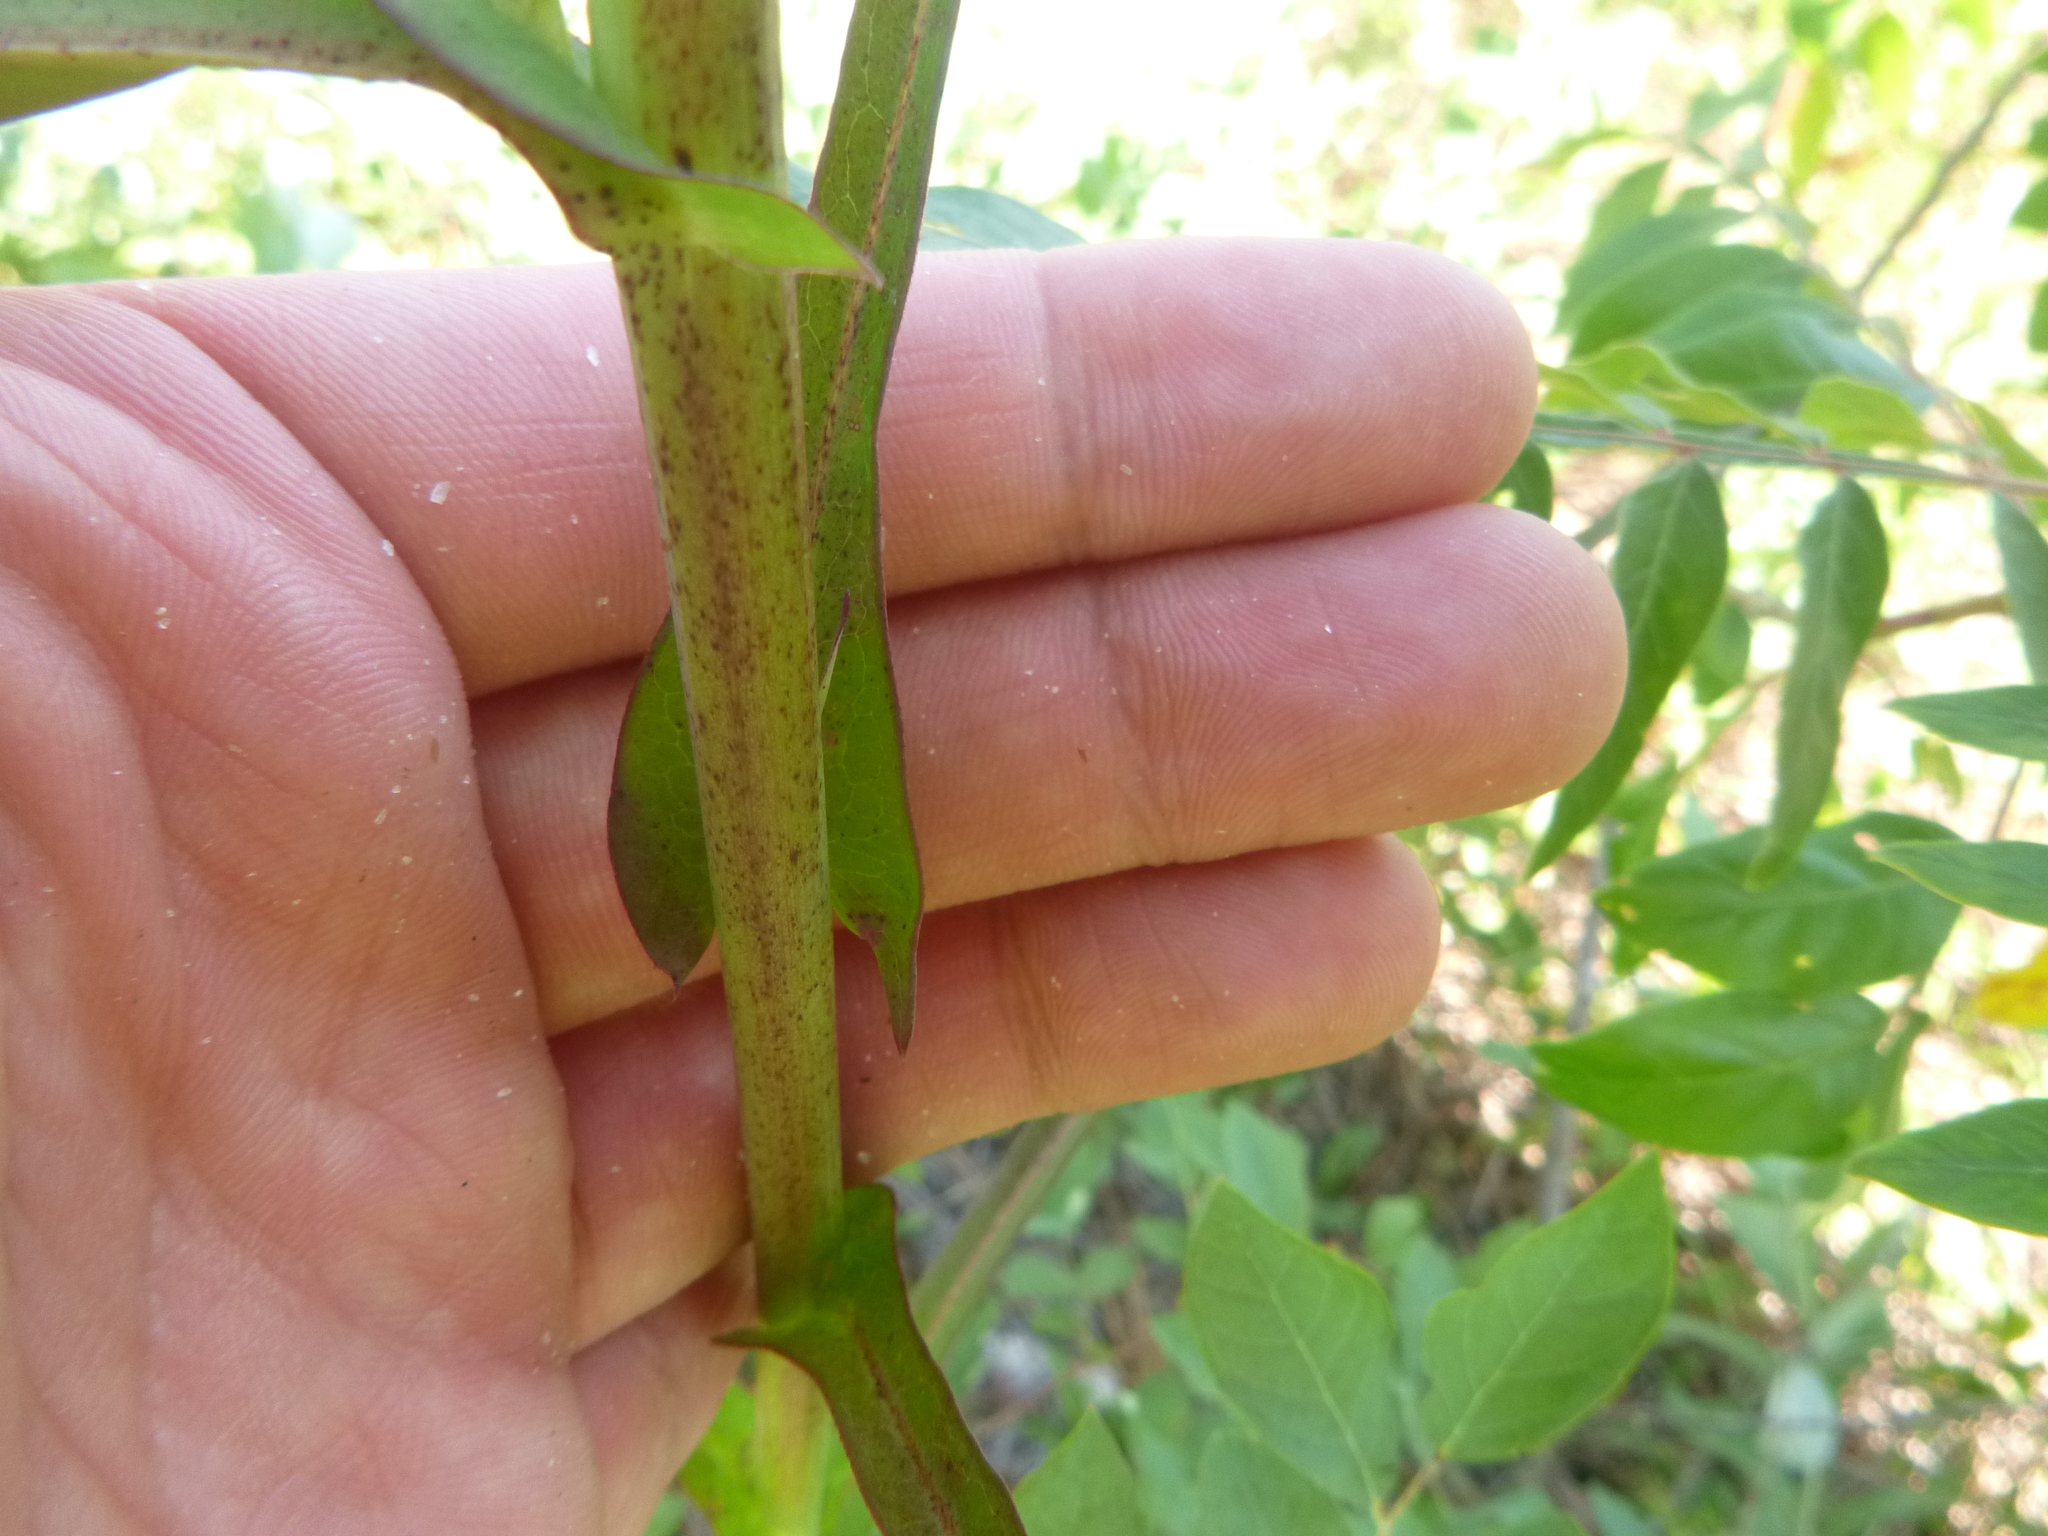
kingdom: Plantae
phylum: Tracheophyta
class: Magnoliopsida
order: Asterales
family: Asteraceae
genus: Lactuca
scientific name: Lactuca graminifolia
